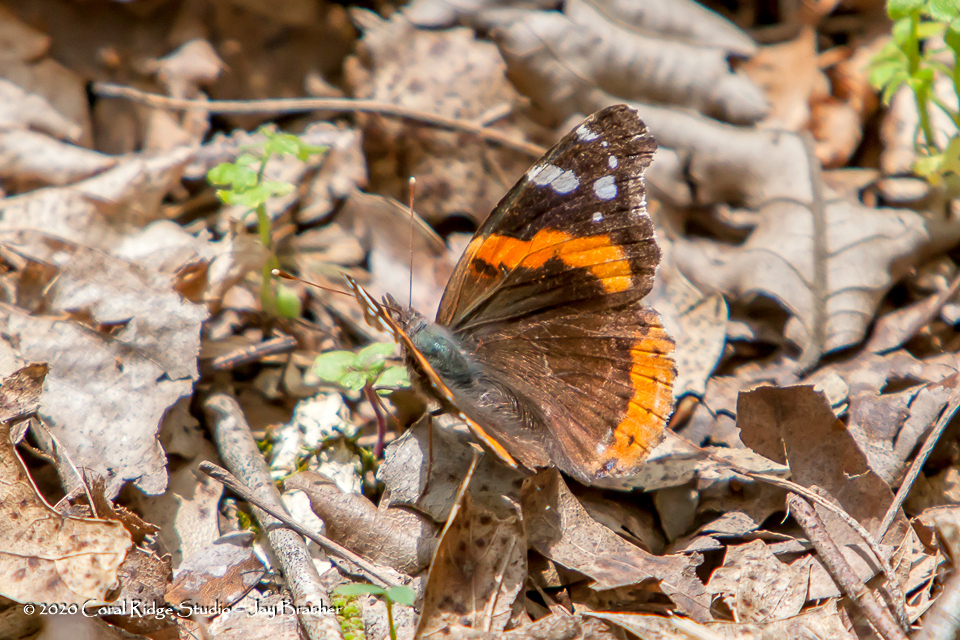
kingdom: Animalia
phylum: Arthropoda
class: Insecta
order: Lepidoptera
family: Nymphalidae
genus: Vanessa
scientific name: Vanessa atalanta
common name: Red admiral
